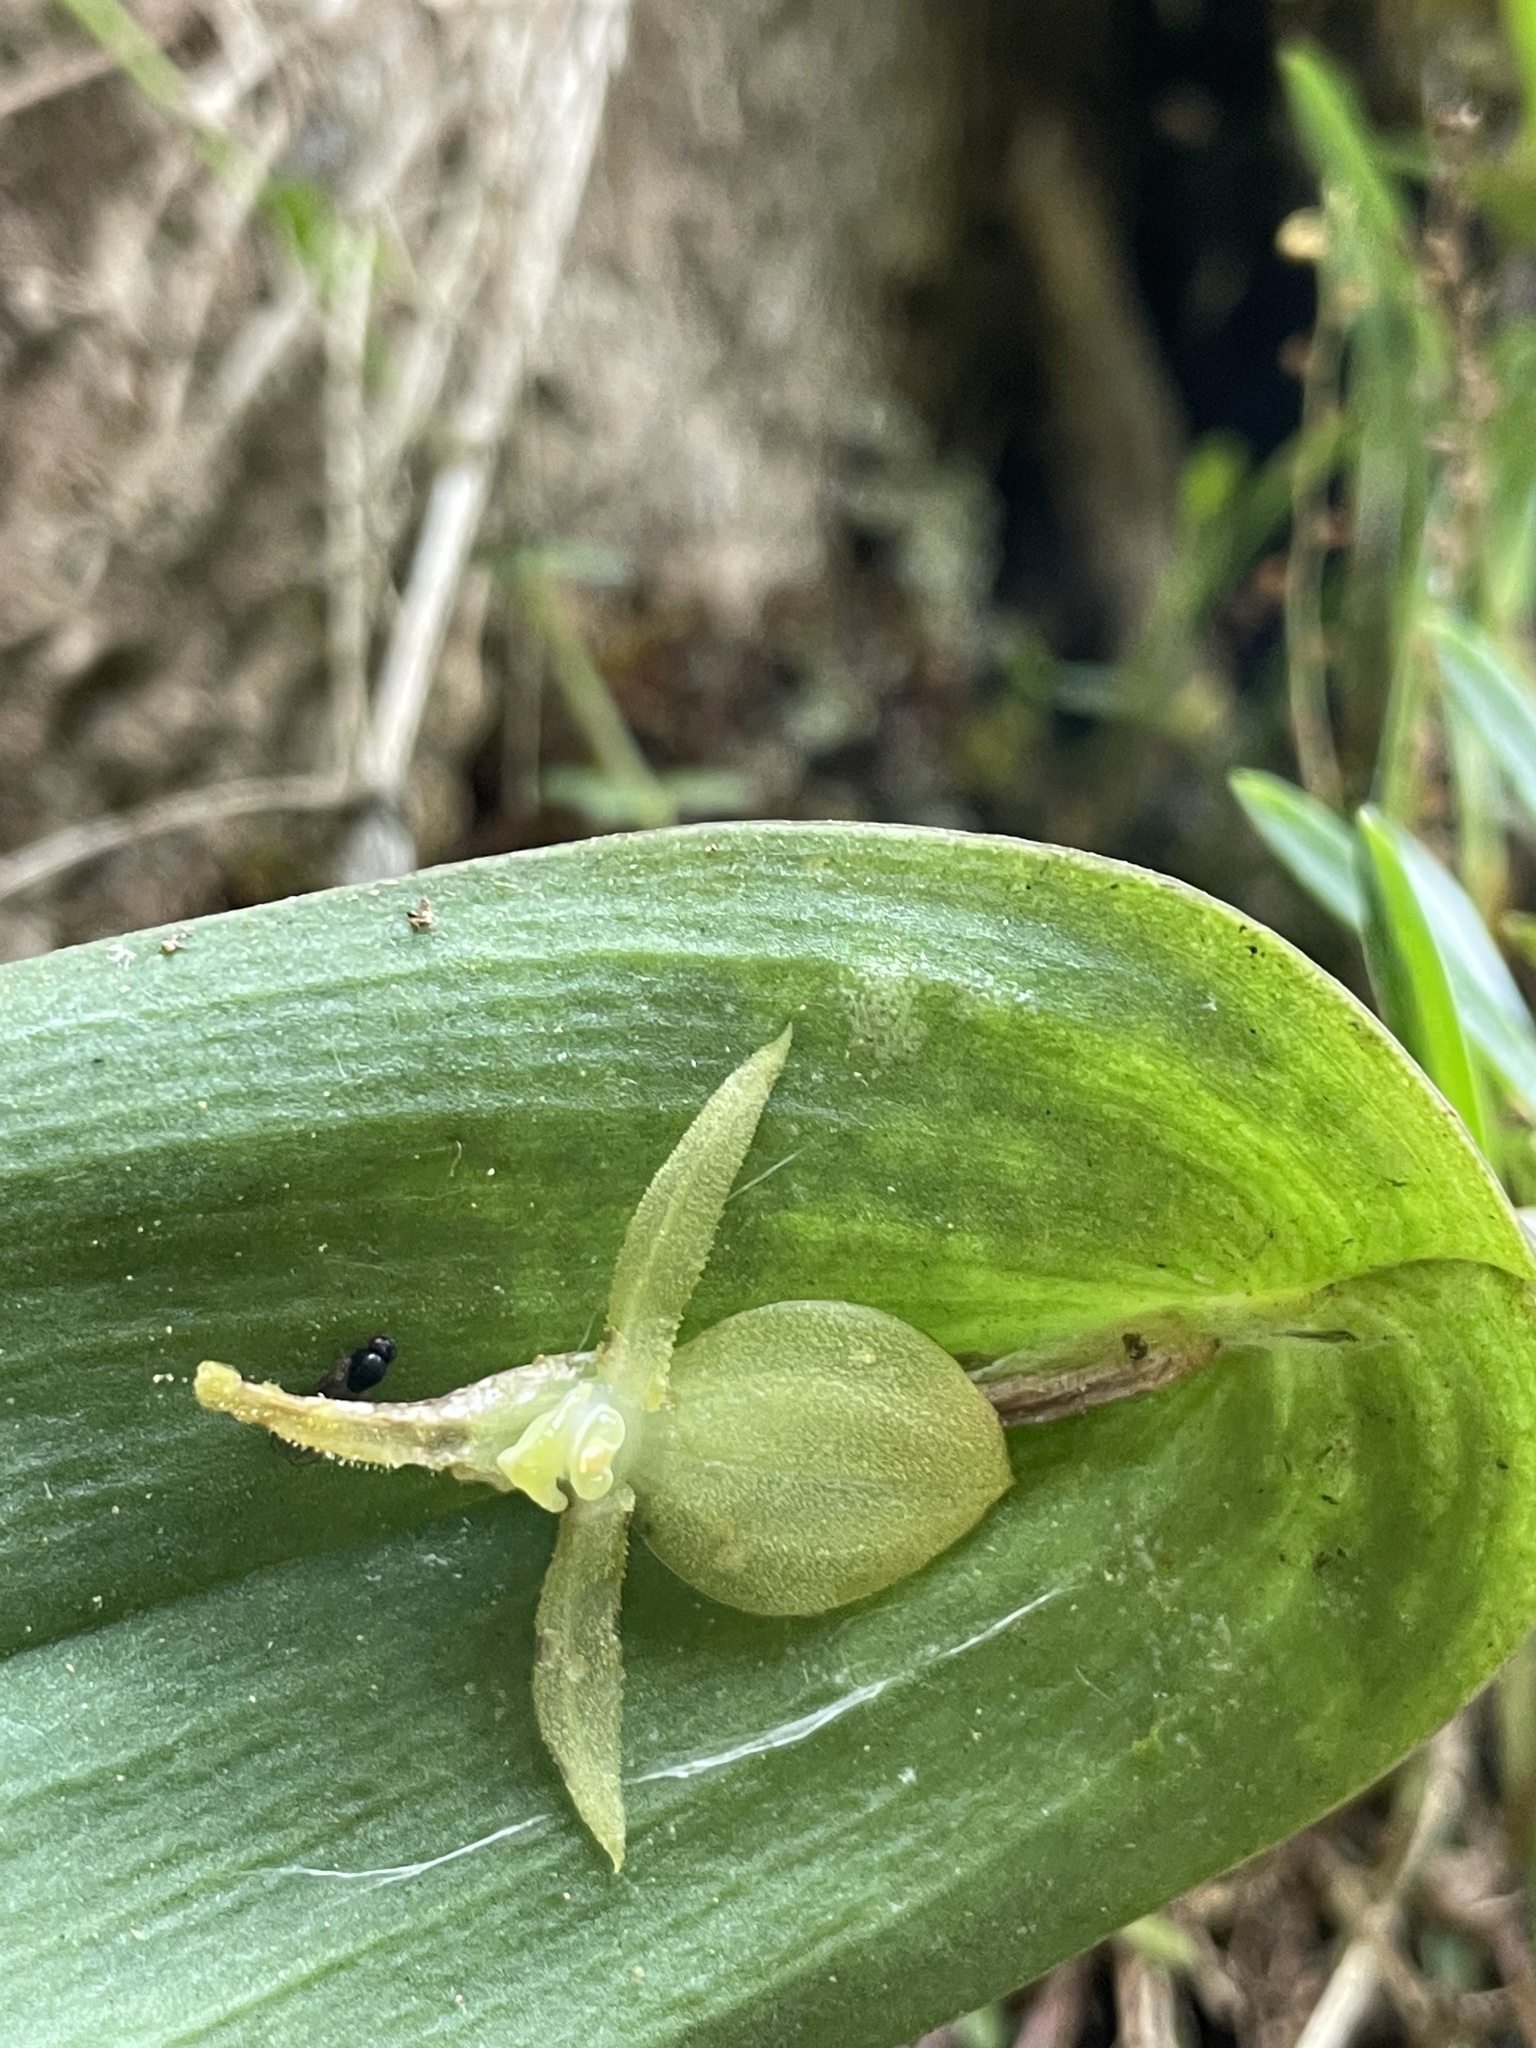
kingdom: Plantae
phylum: Tracheophyta
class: Liliopsida
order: Asparagales
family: Orchidaceae
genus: Pleurothallis
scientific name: Pleurothallis apopsis
